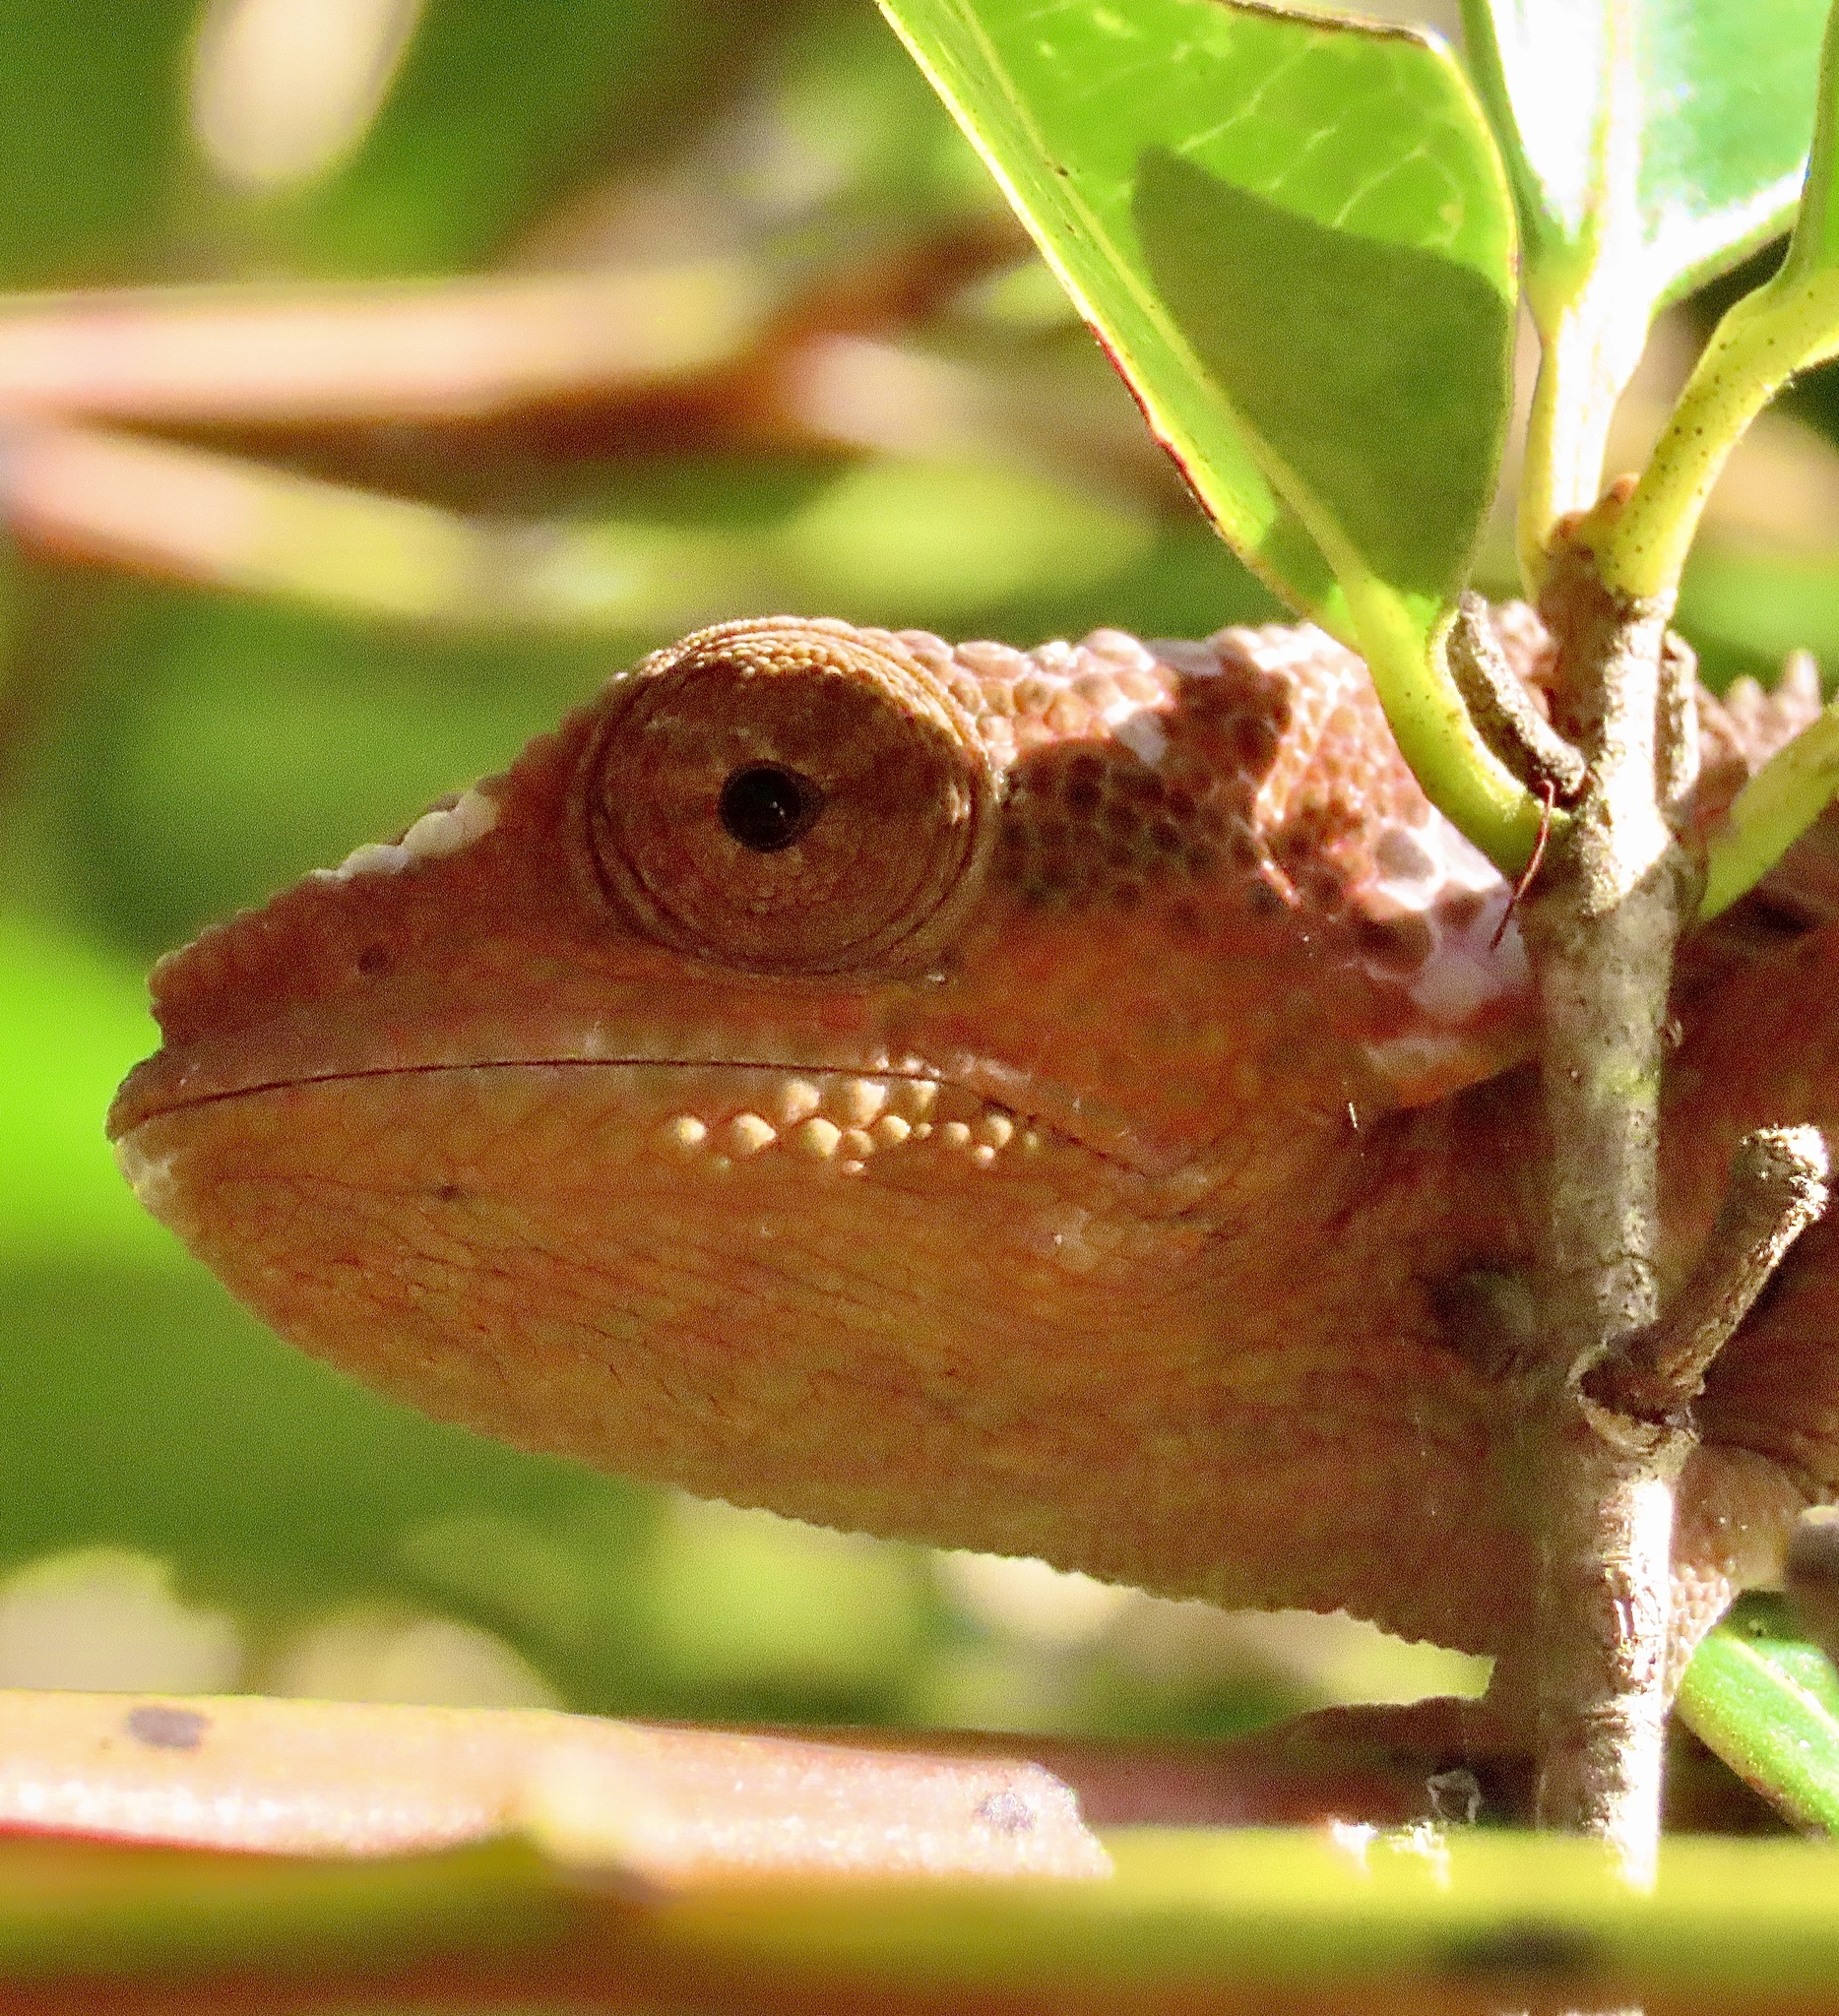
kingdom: Animalia
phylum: Chordata
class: Squamata
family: Chamaeleonidae
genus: Calumma
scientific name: Calumma brevicorne
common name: Short-horned chameleon
